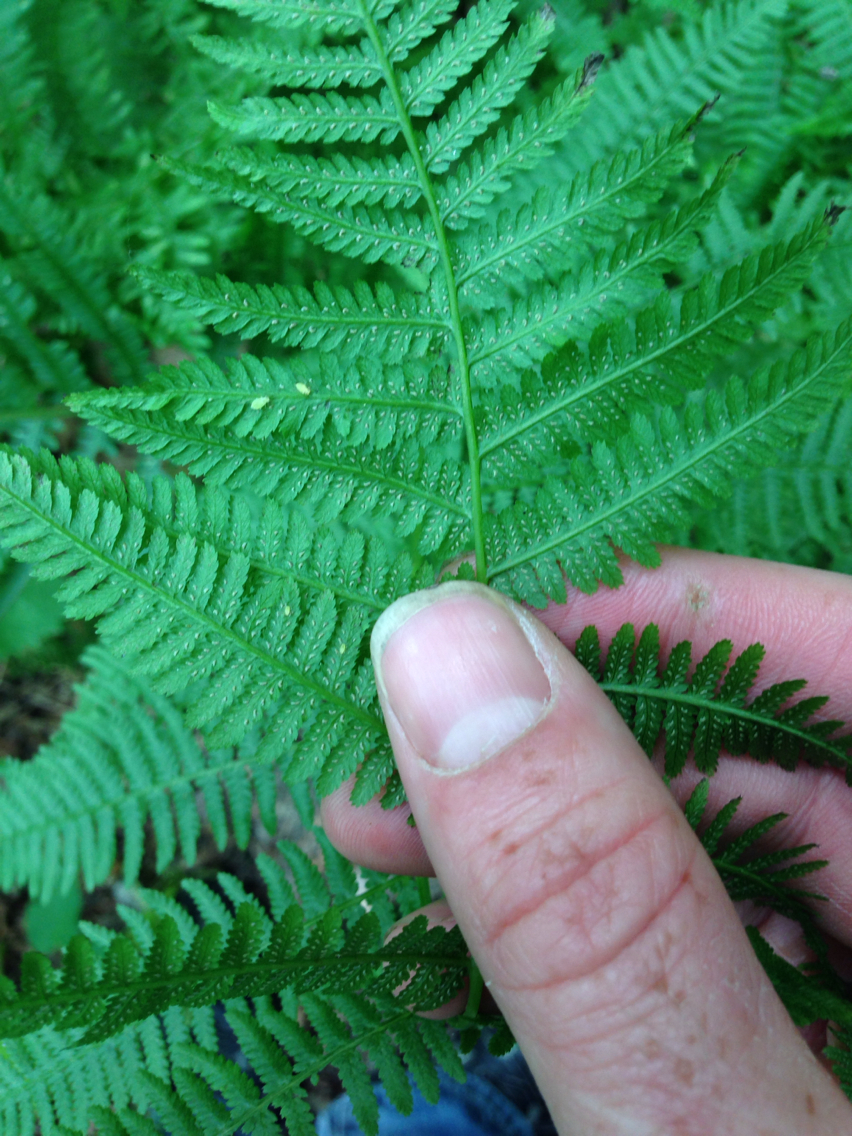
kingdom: Plantae
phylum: Tracheophyta
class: Polypodiopsida
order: Polypodiales
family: Athyriaceae
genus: Athyrium
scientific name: Athyrium angustum
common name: Northern lady fern
